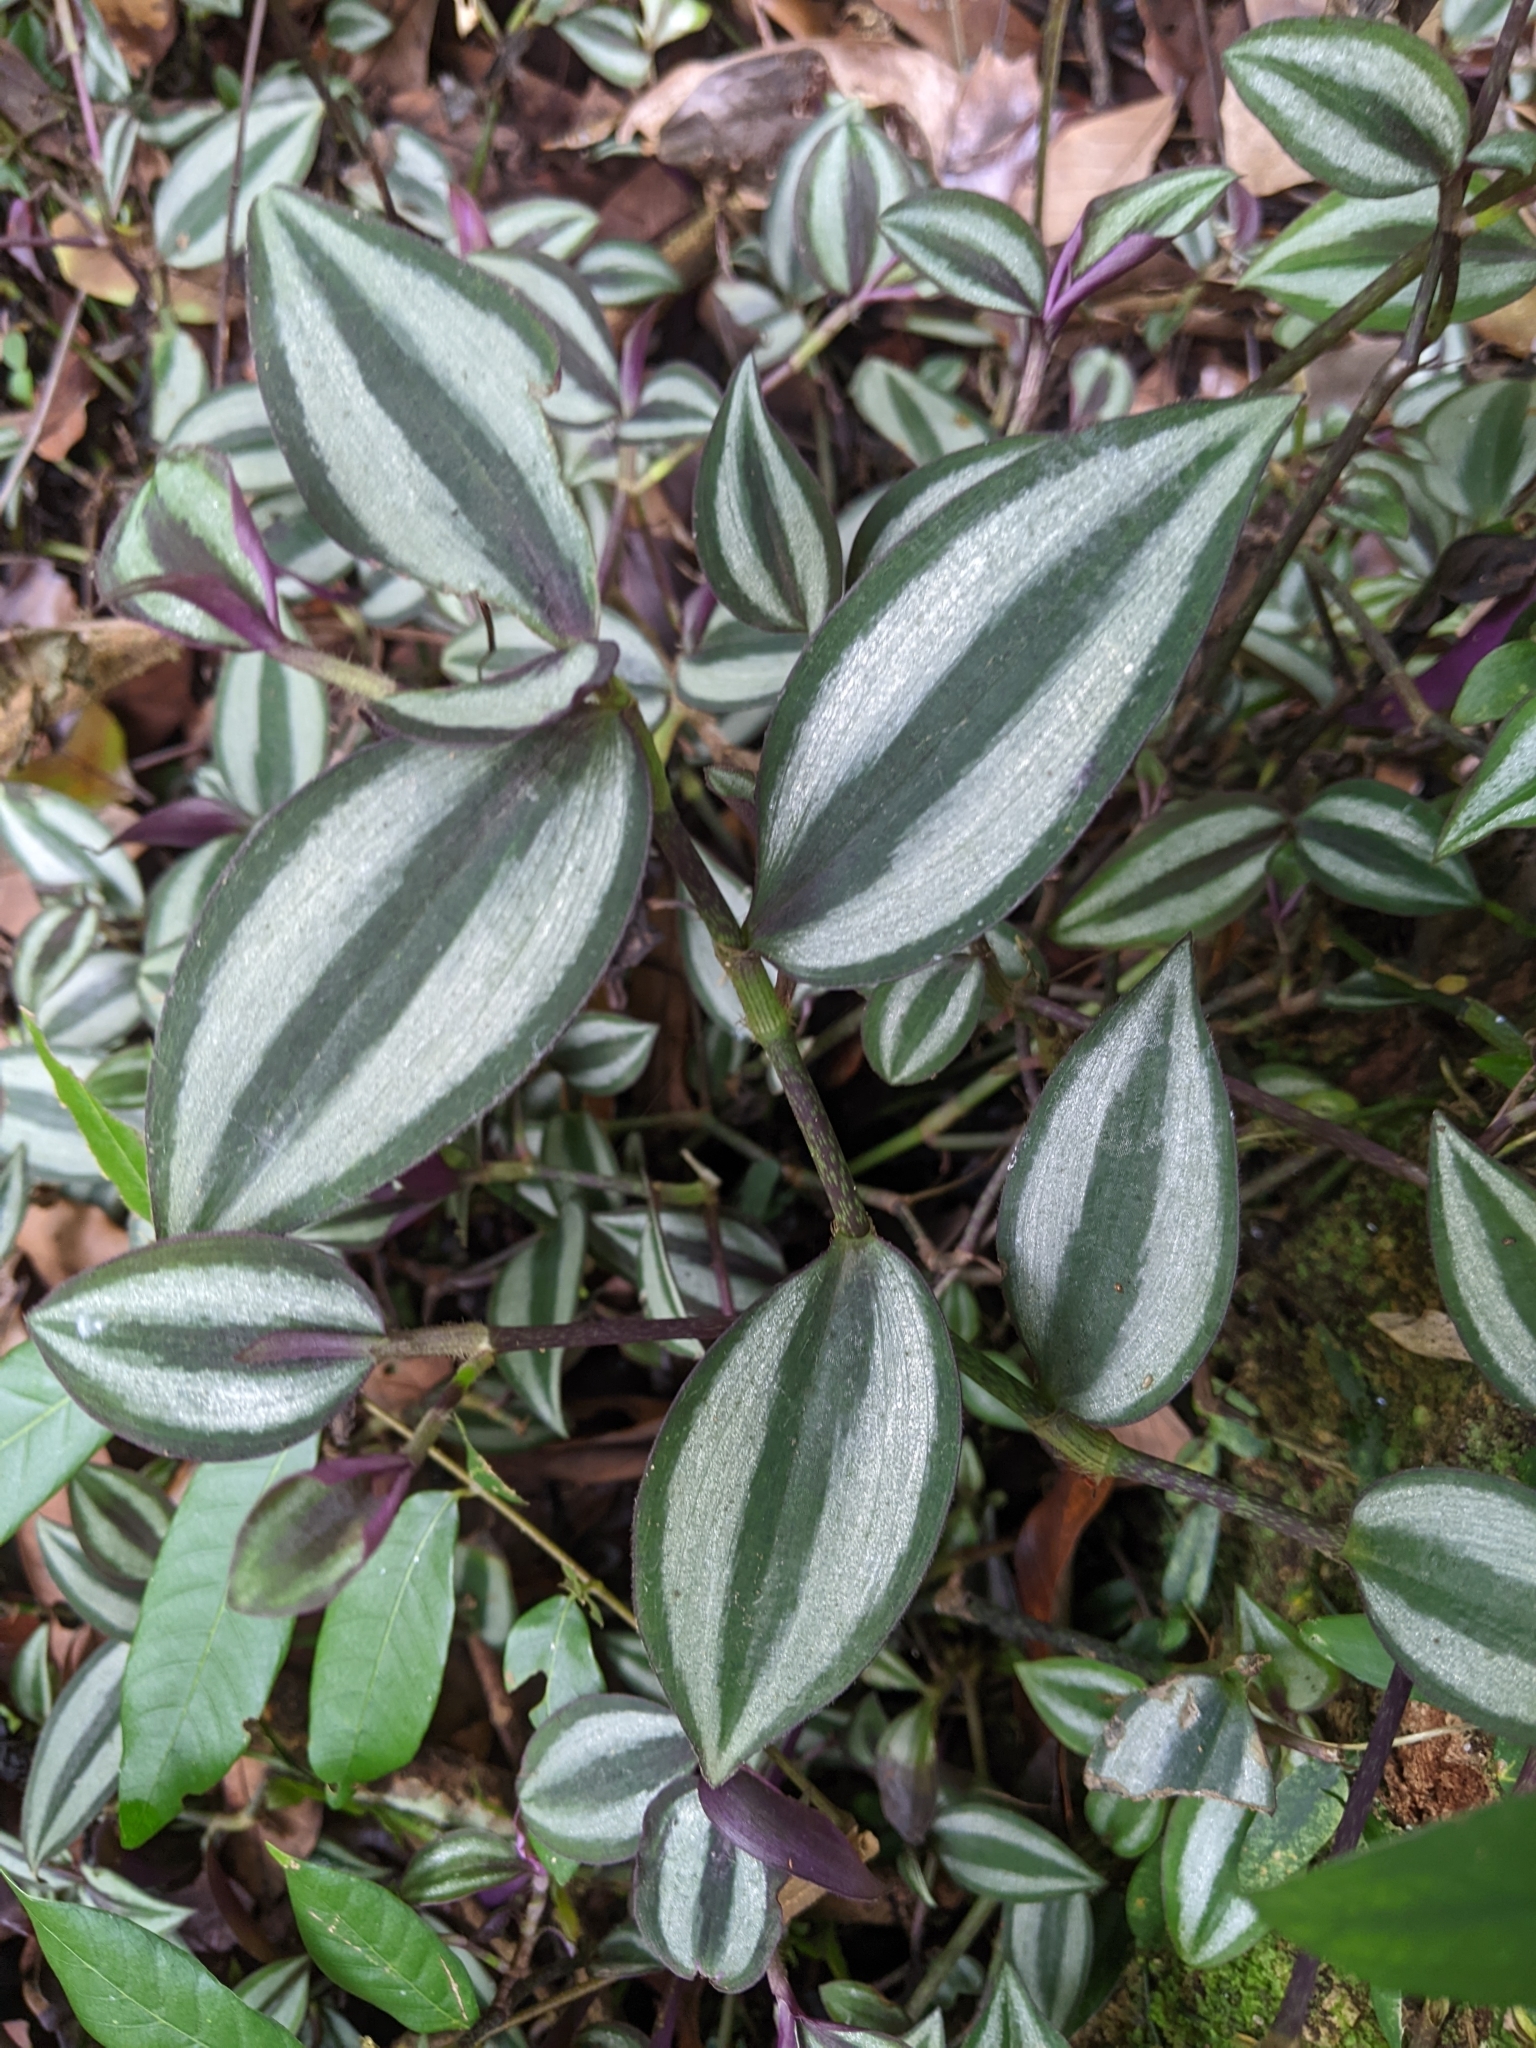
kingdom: Plantae
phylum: Tracheophyta
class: Liliopsida
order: Commelinales
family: Commelinaceae
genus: Tradescantia
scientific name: Tradescantia zebrina
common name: Inchplant
